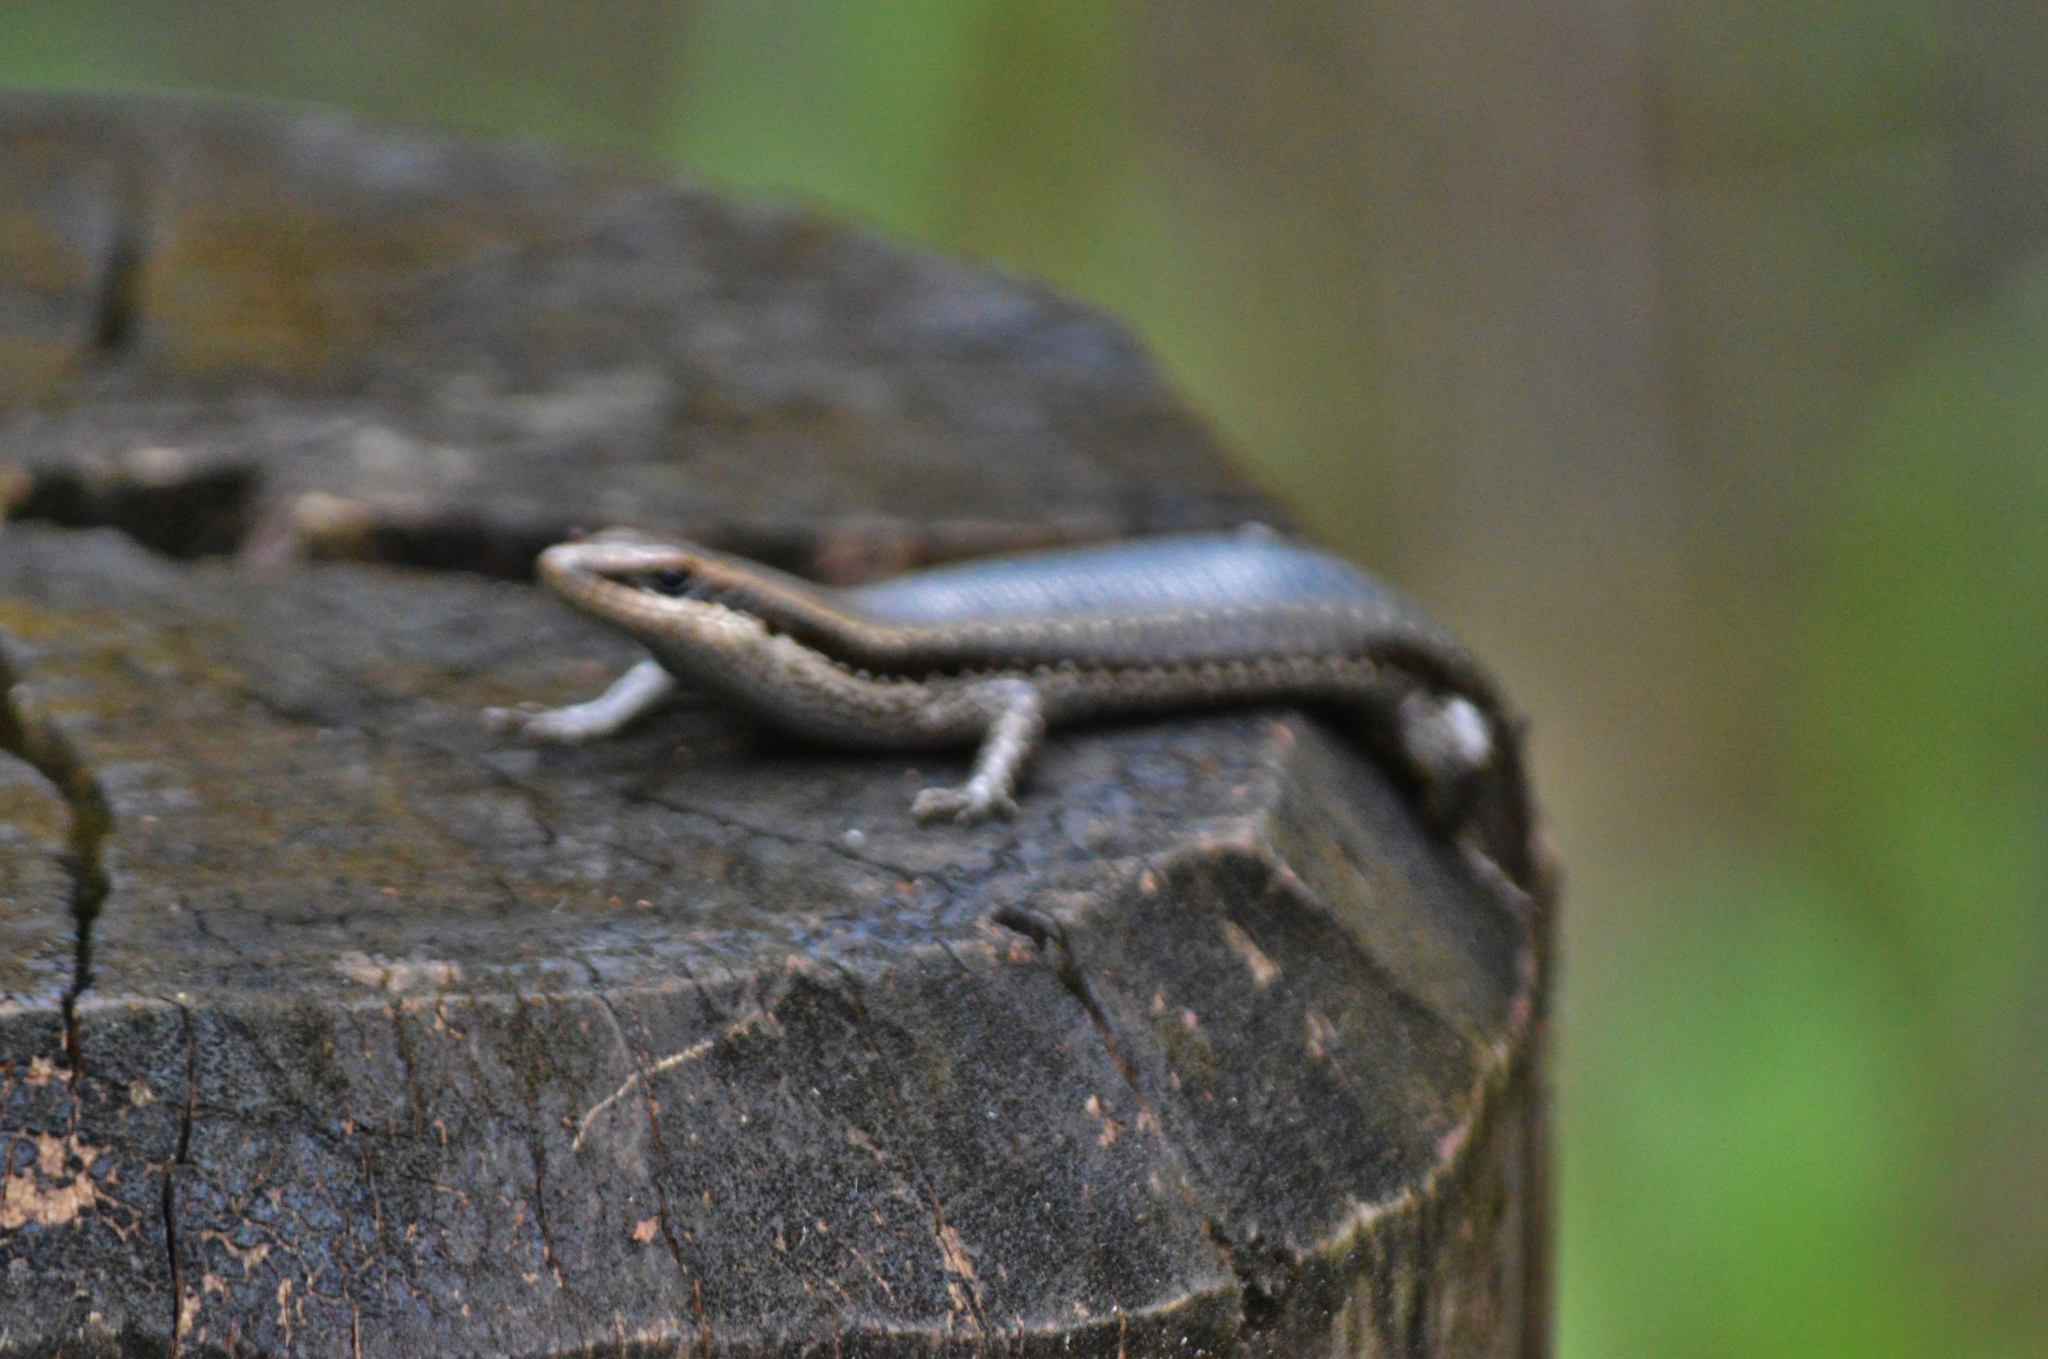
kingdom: Animalia
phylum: Chordata
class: Squamata
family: Scincidae
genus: Notomabuya
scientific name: Notomabuya frenata
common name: Cope's mabuya
